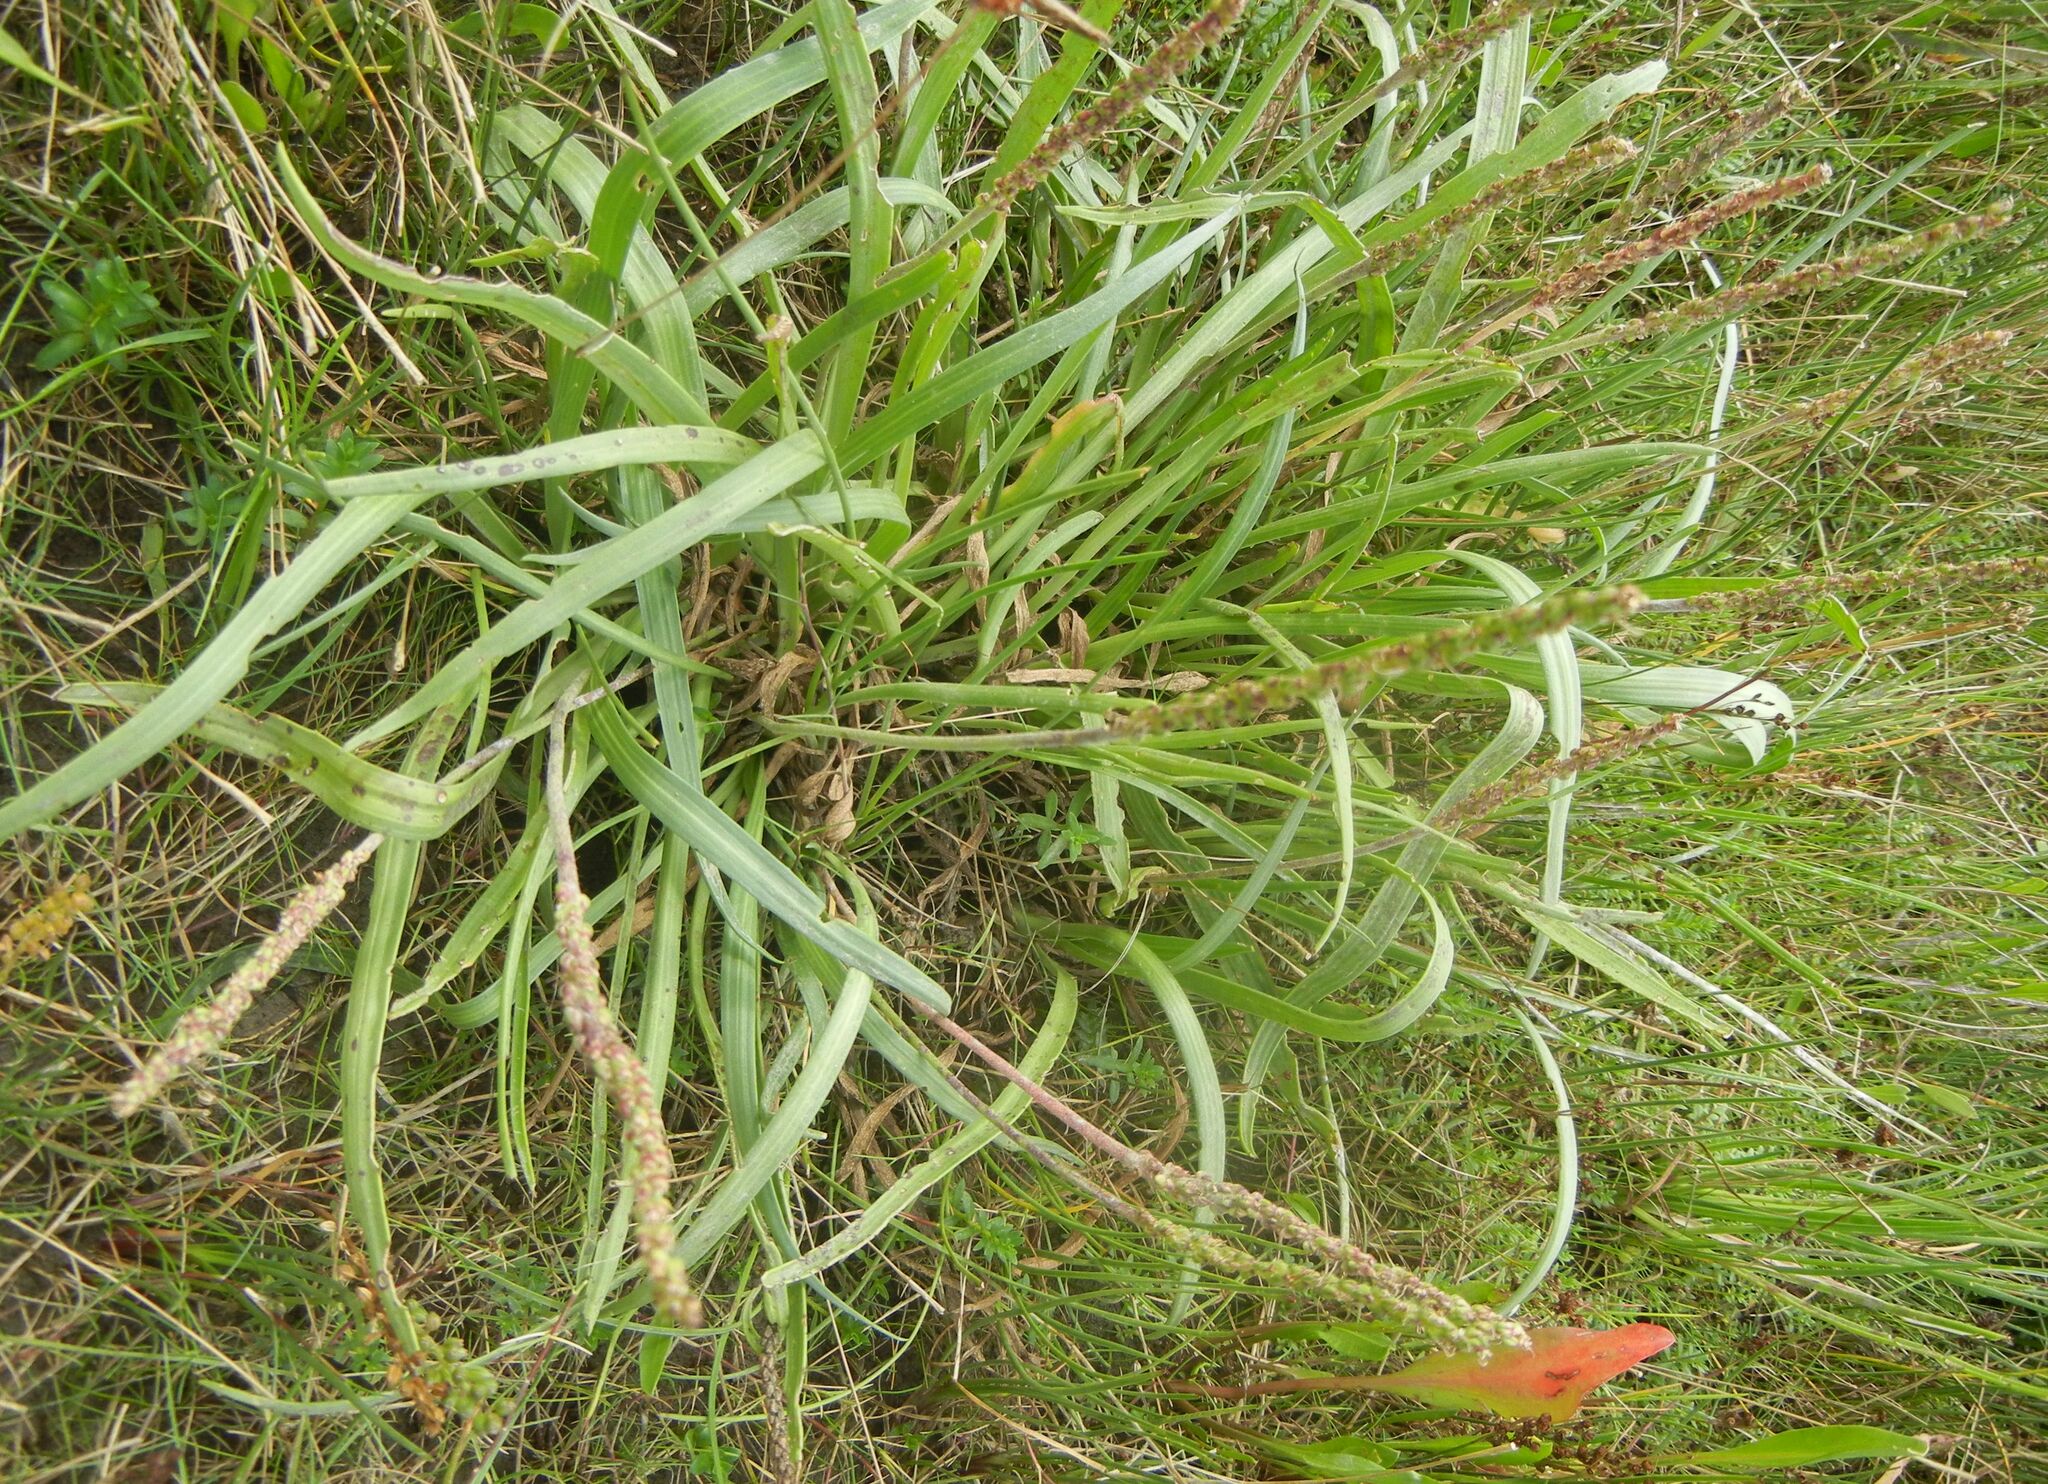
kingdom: Plantae
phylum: Tracheophyta
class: Magnoliopsida
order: Lamiales
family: Plantaginaceae
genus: Plantago
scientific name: Plantago maritima
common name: Sea plantain
